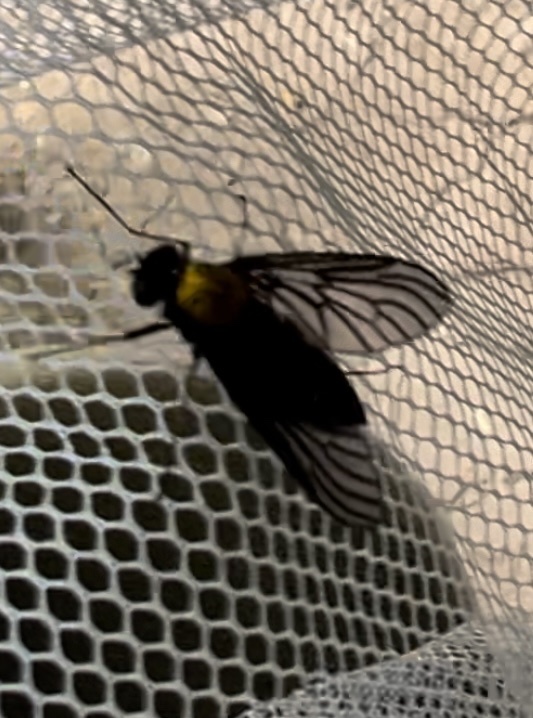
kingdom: Animalia
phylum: Arthropoda
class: Insecta
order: Diptera
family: Rhagionidae
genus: Chrysopilus
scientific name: Chrysopilus thoracicus
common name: Golden-backed snipe fly
